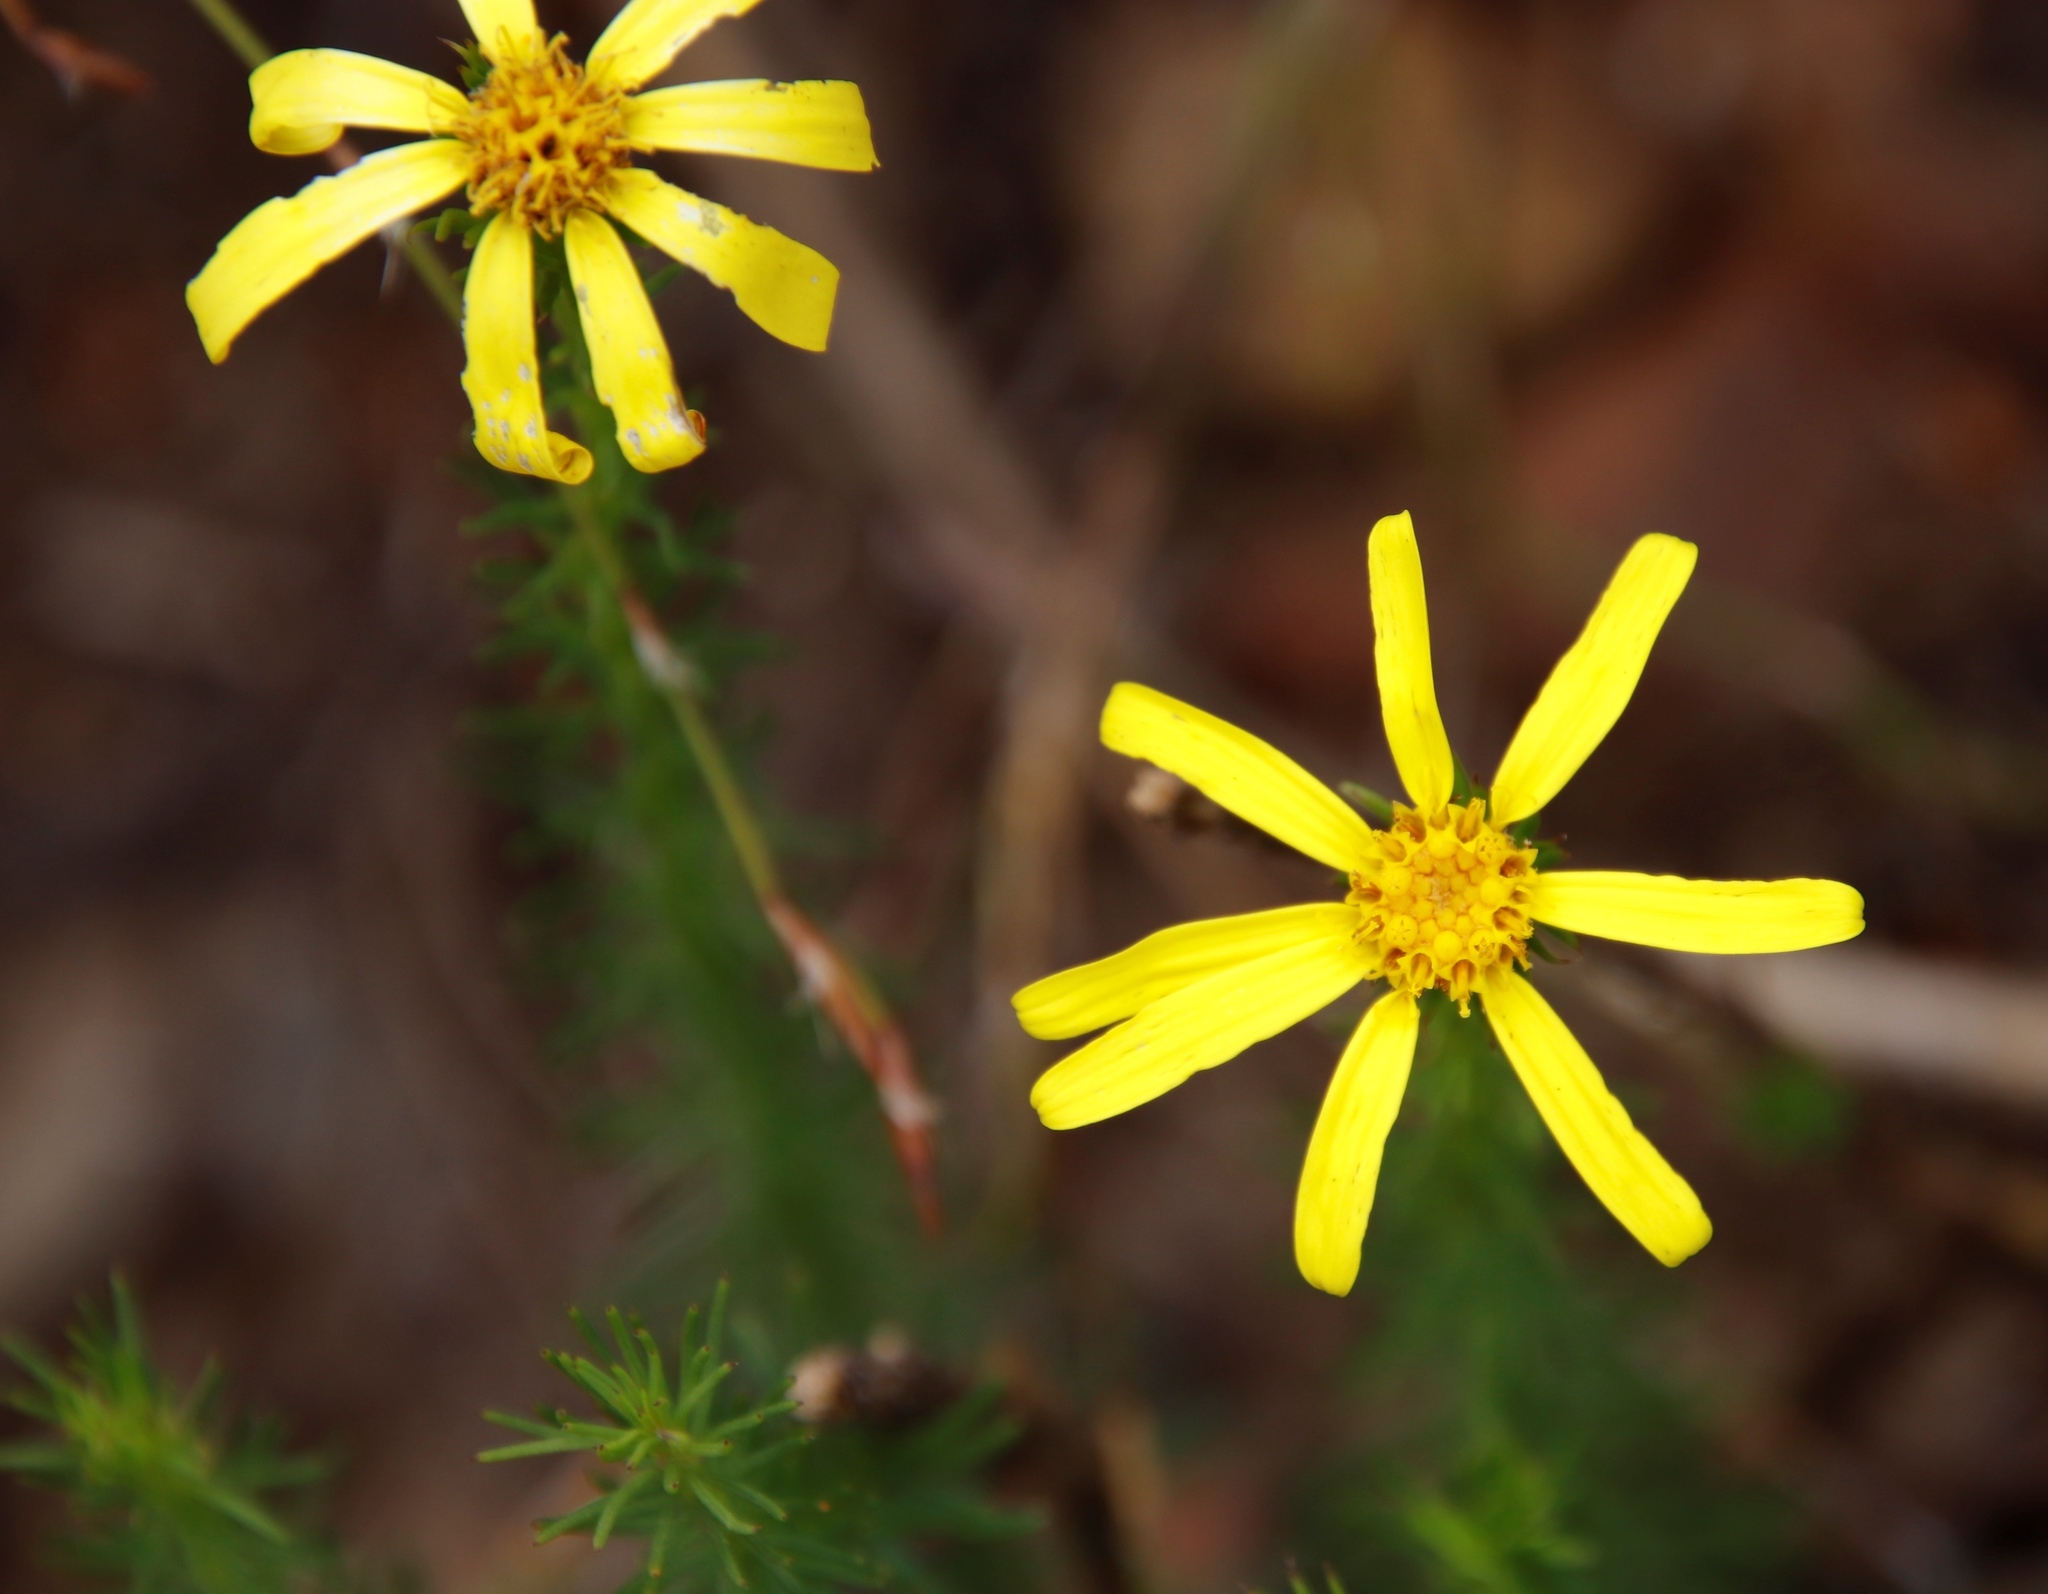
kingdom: Plantae
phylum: Tracheophyta
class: Magnoliopsida
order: Asterales
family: Asteraceae
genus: Senecio
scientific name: Senecio pinifolius
